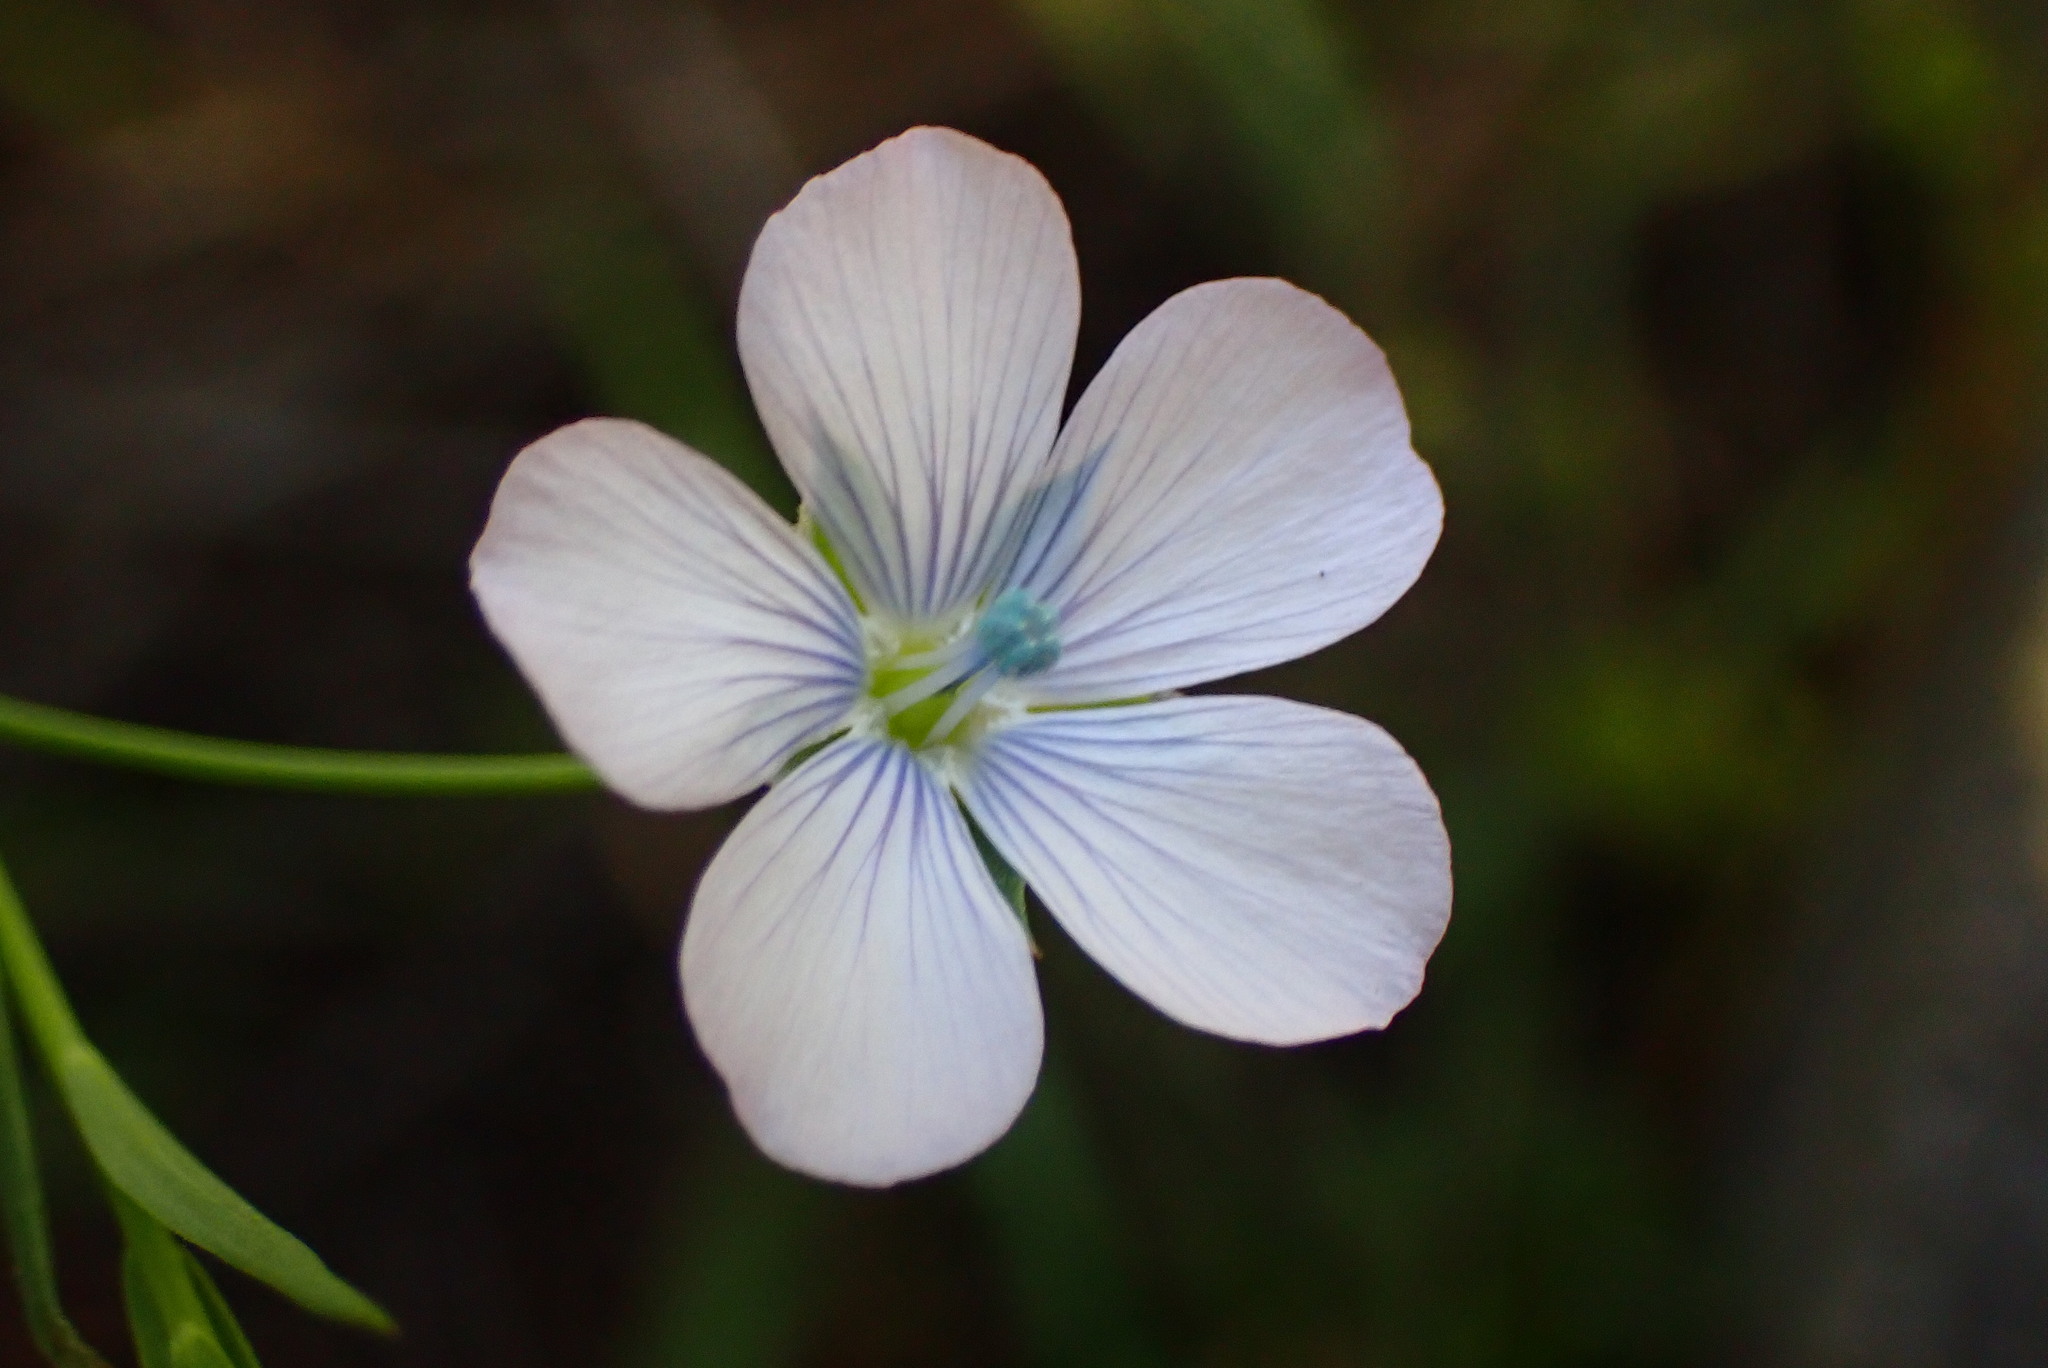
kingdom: Plantae
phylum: Tracheophyta
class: Magnoliopsida
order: Malpighiales
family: Linaceae
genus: Linum
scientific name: Linum bienne
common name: Pale flax
